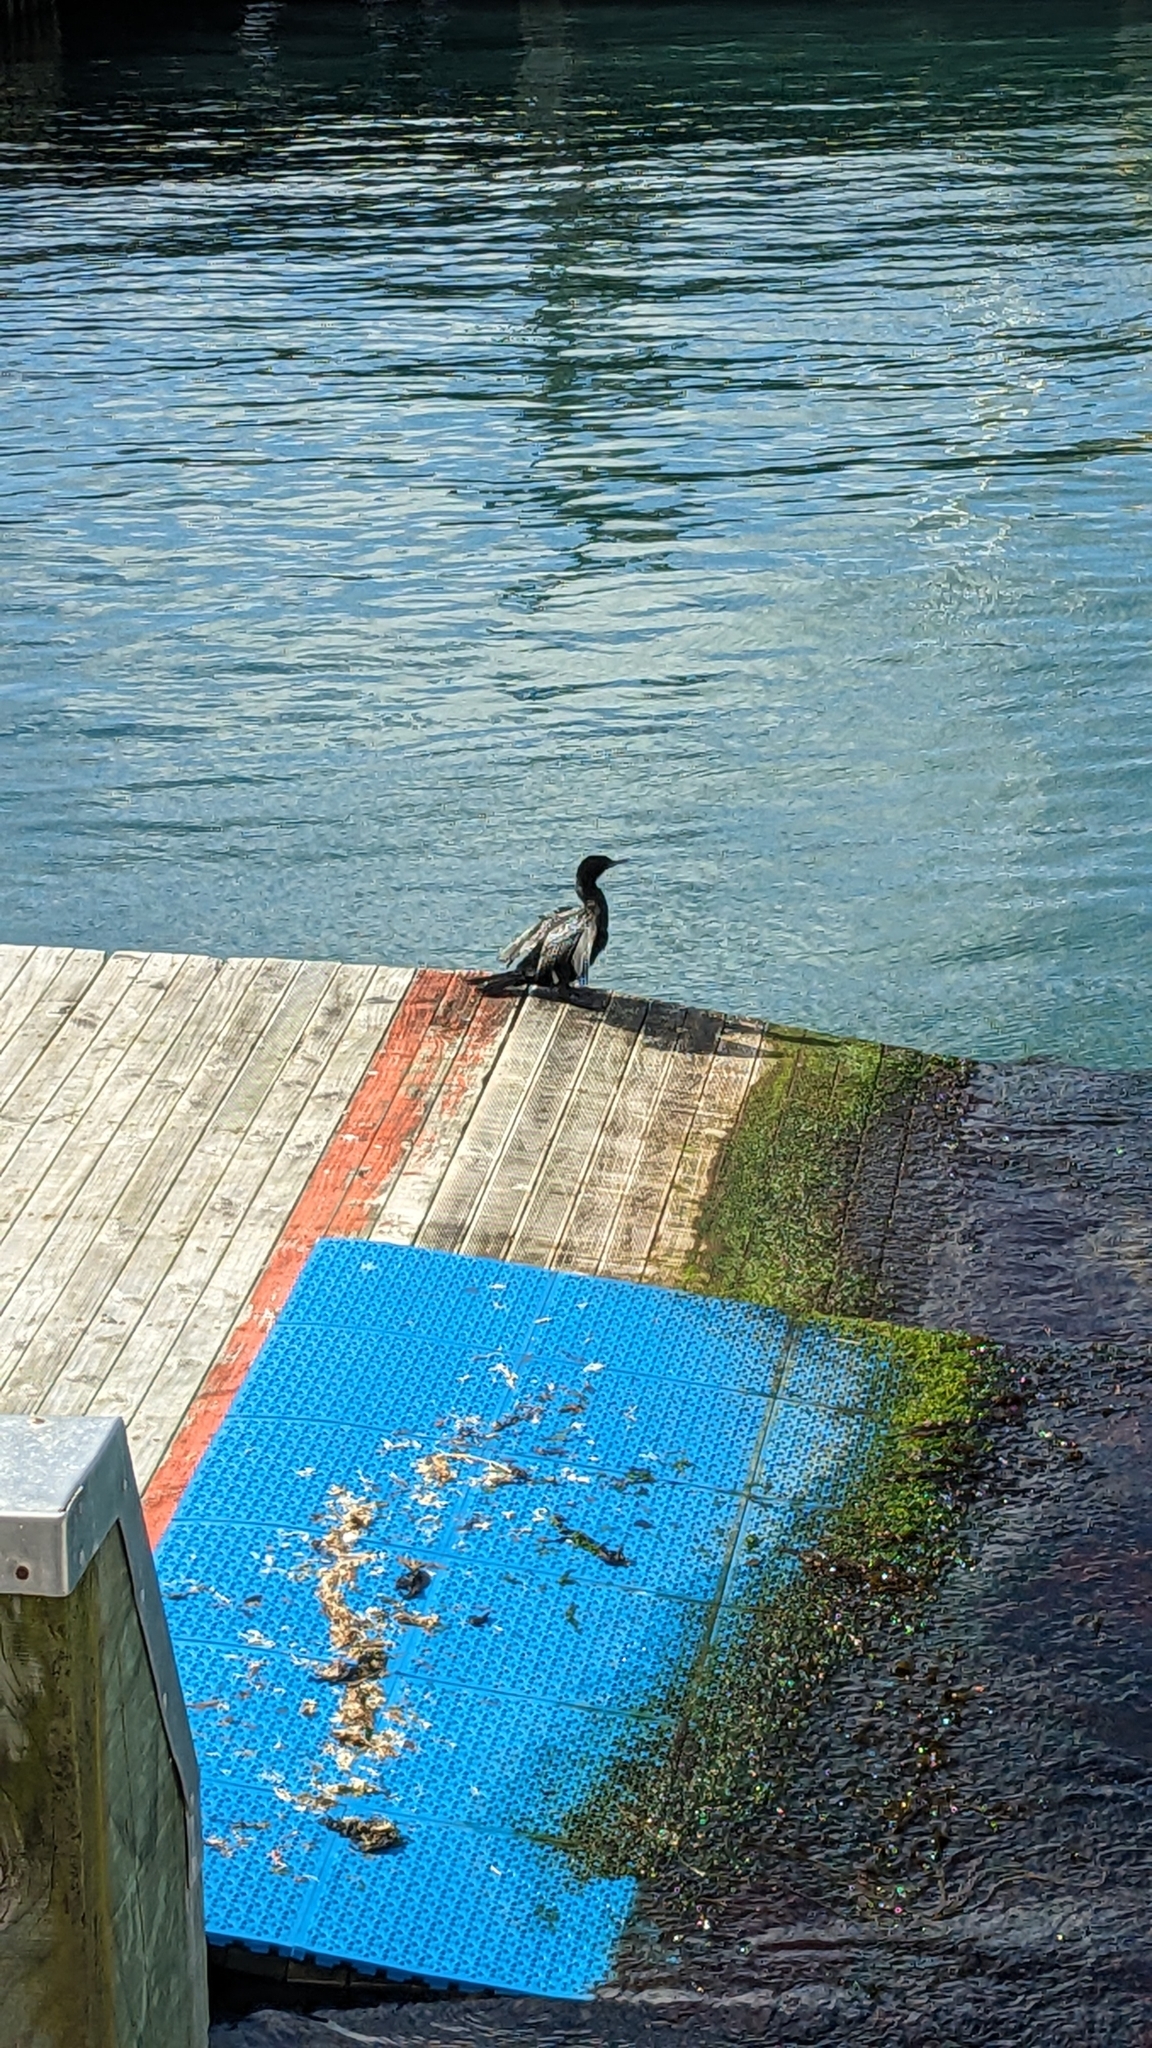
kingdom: Animalia
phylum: Chordata
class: Aves
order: Suliformes
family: Phalacrocoracidae
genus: Phalacrocorax
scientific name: Phalacrocorax sulcirostris
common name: Little black cormorant
